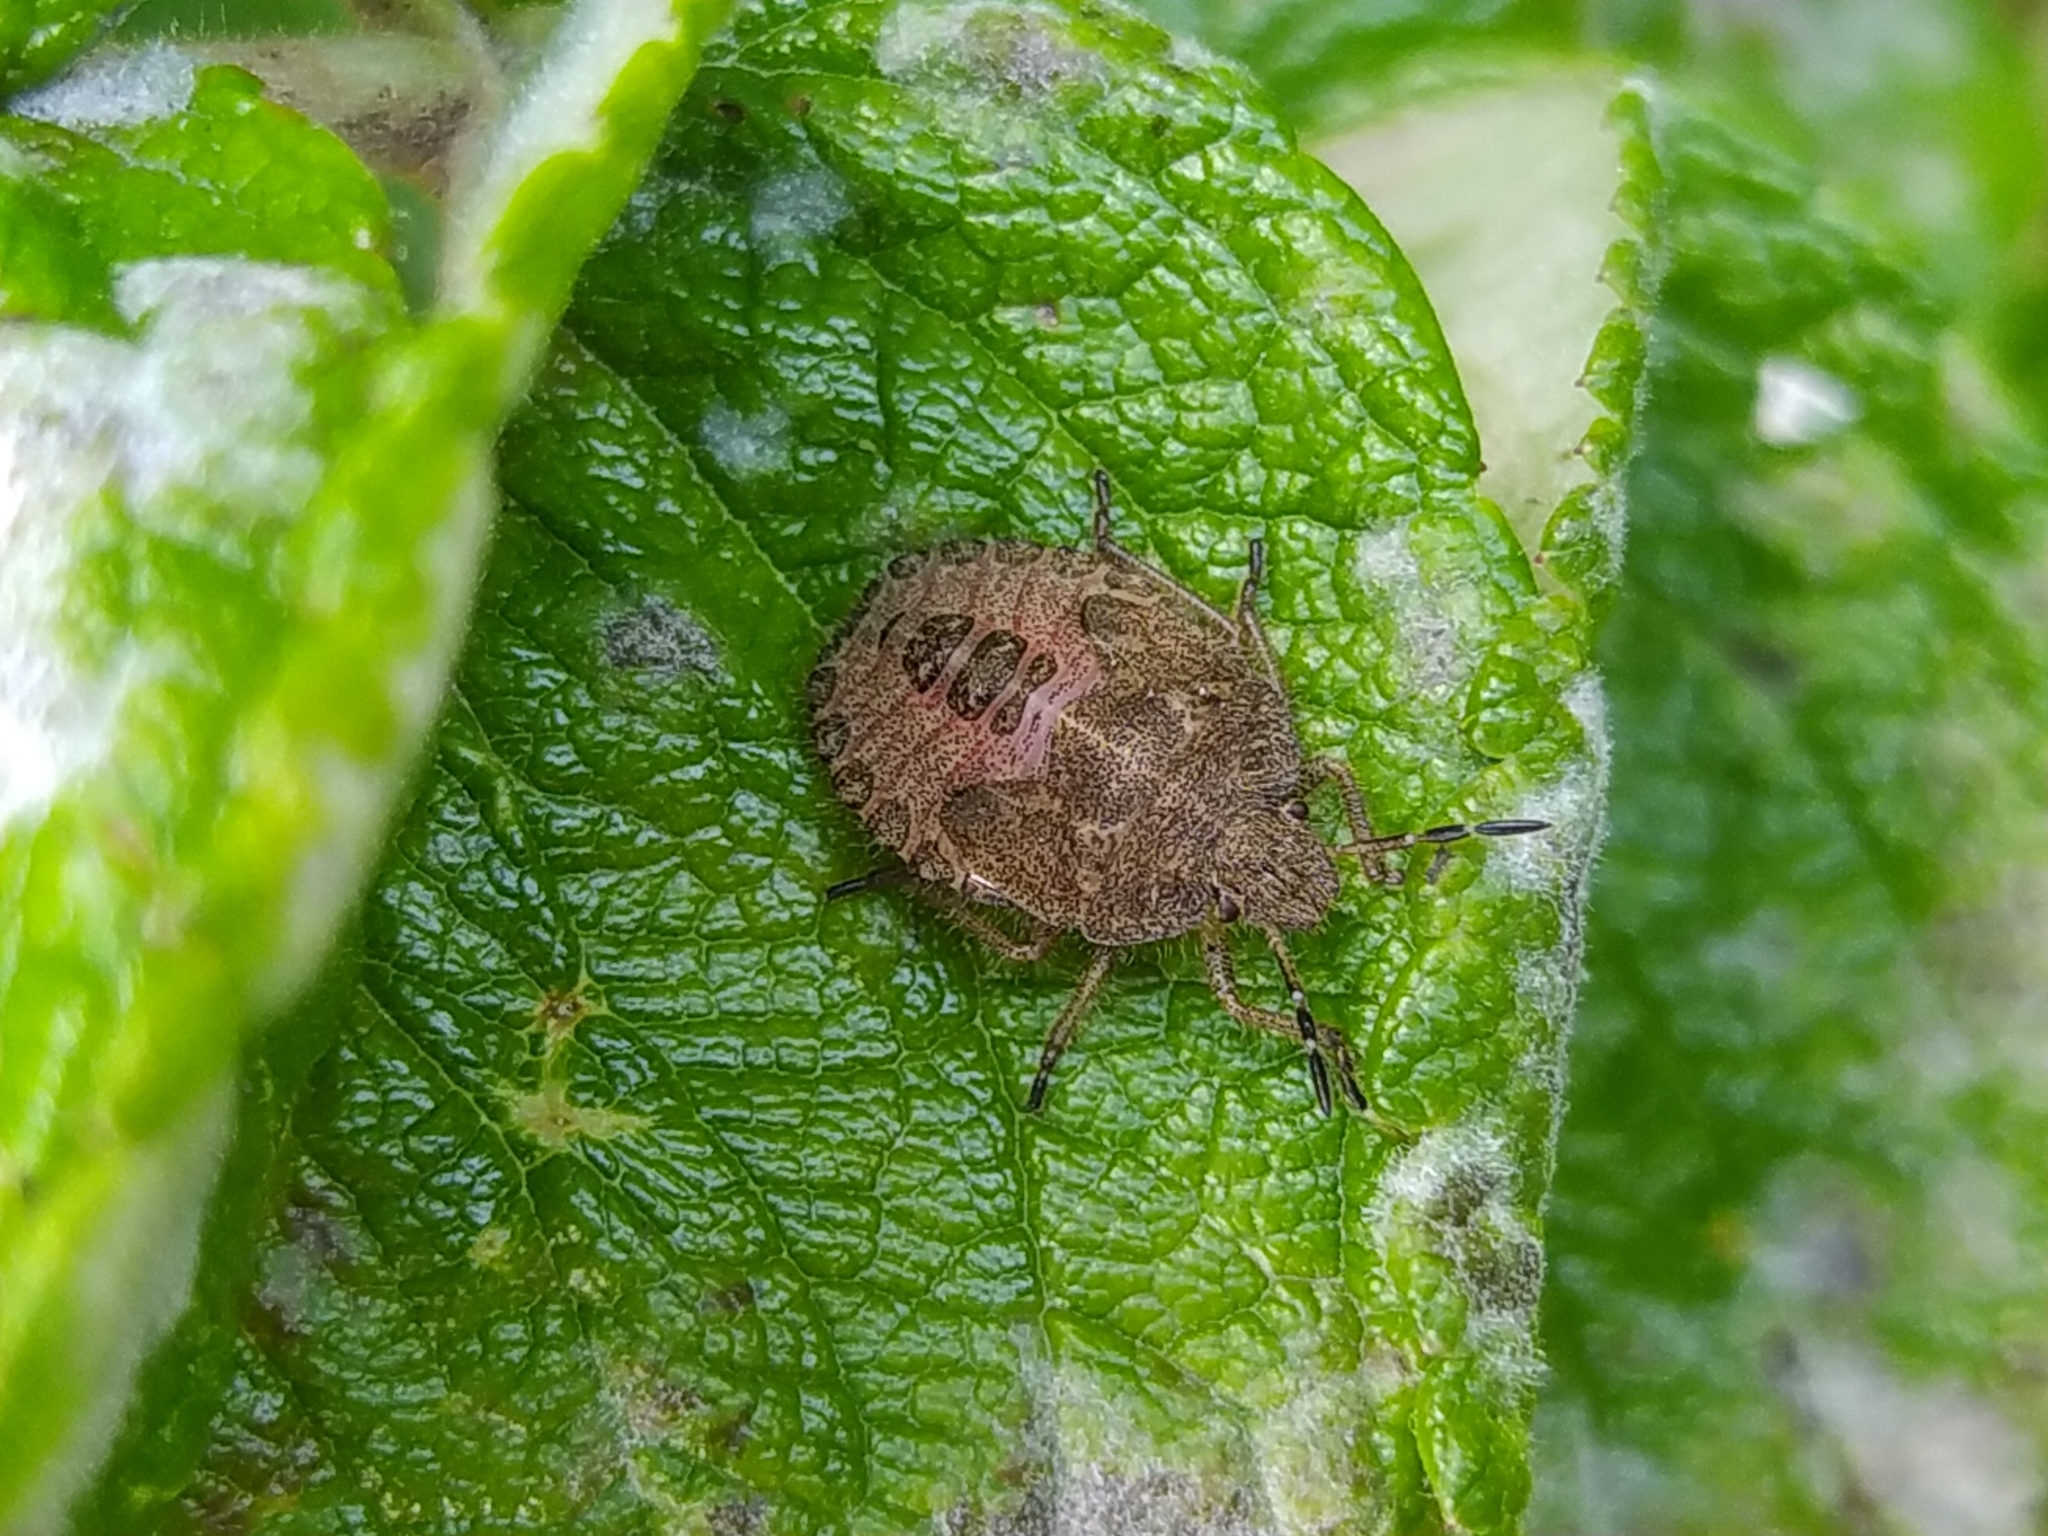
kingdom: Animalia
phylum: Arthropoda
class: Insecta
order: Hemiptera
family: Pentatomidae
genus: Dolycoris
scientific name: Dolycoris baccarum
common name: Sloe bug
